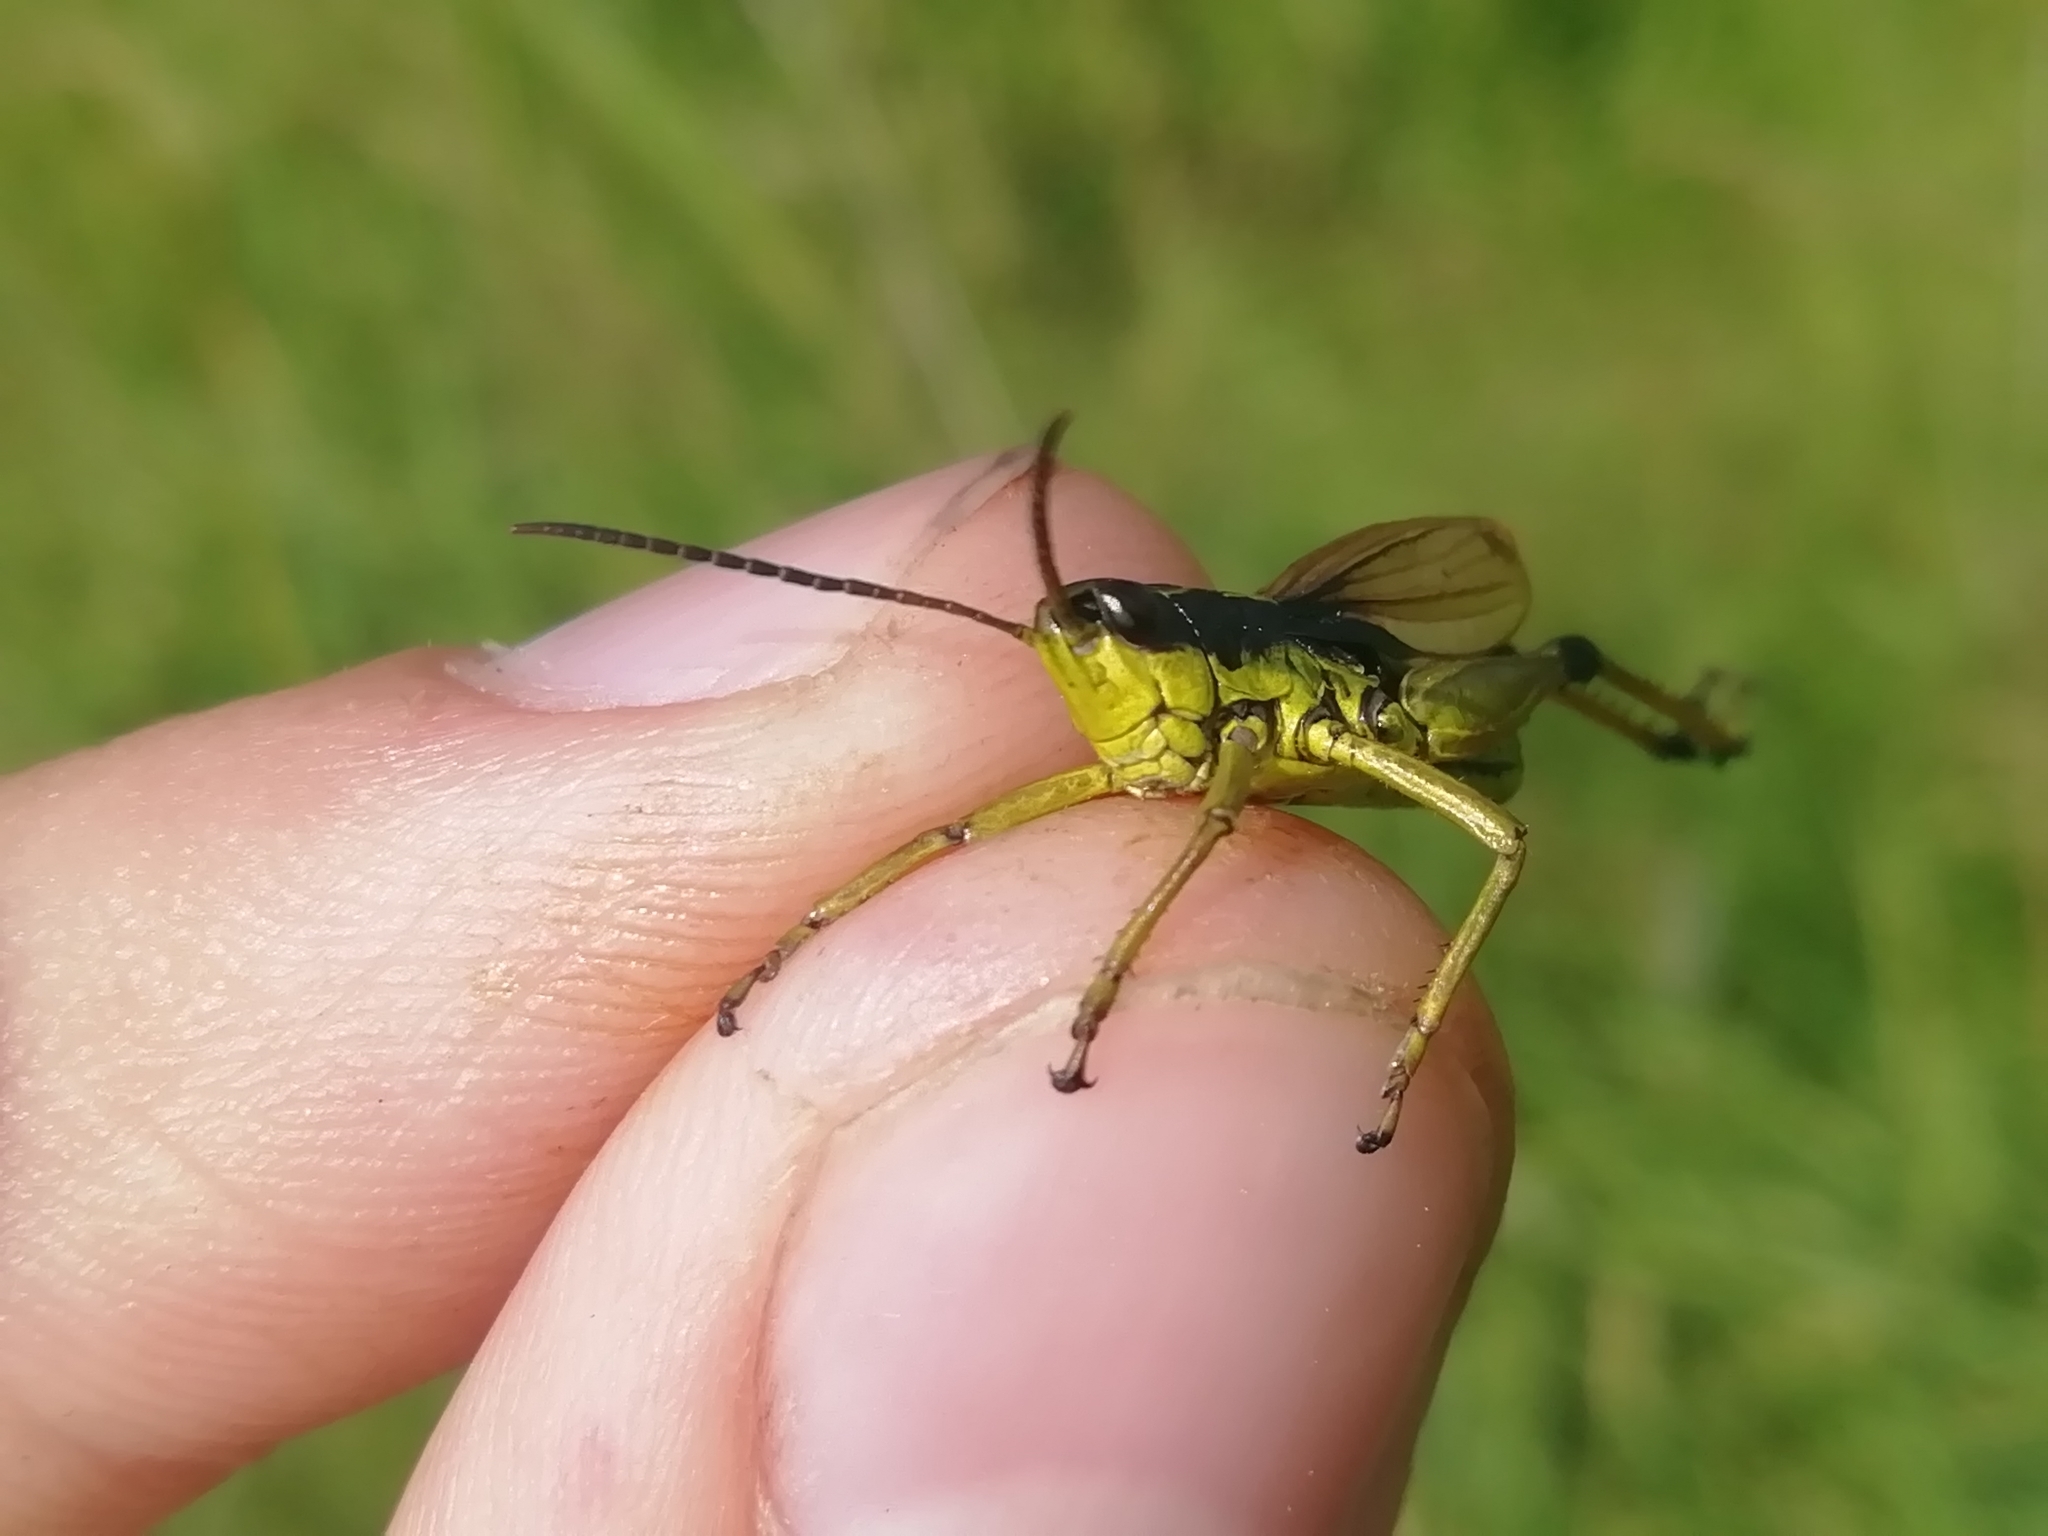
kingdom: Animalia
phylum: Arthropoda
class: Insecta
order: Orthoptera
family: Acrididae
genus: Podismopsis
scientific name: Podismopsis poppiusi
